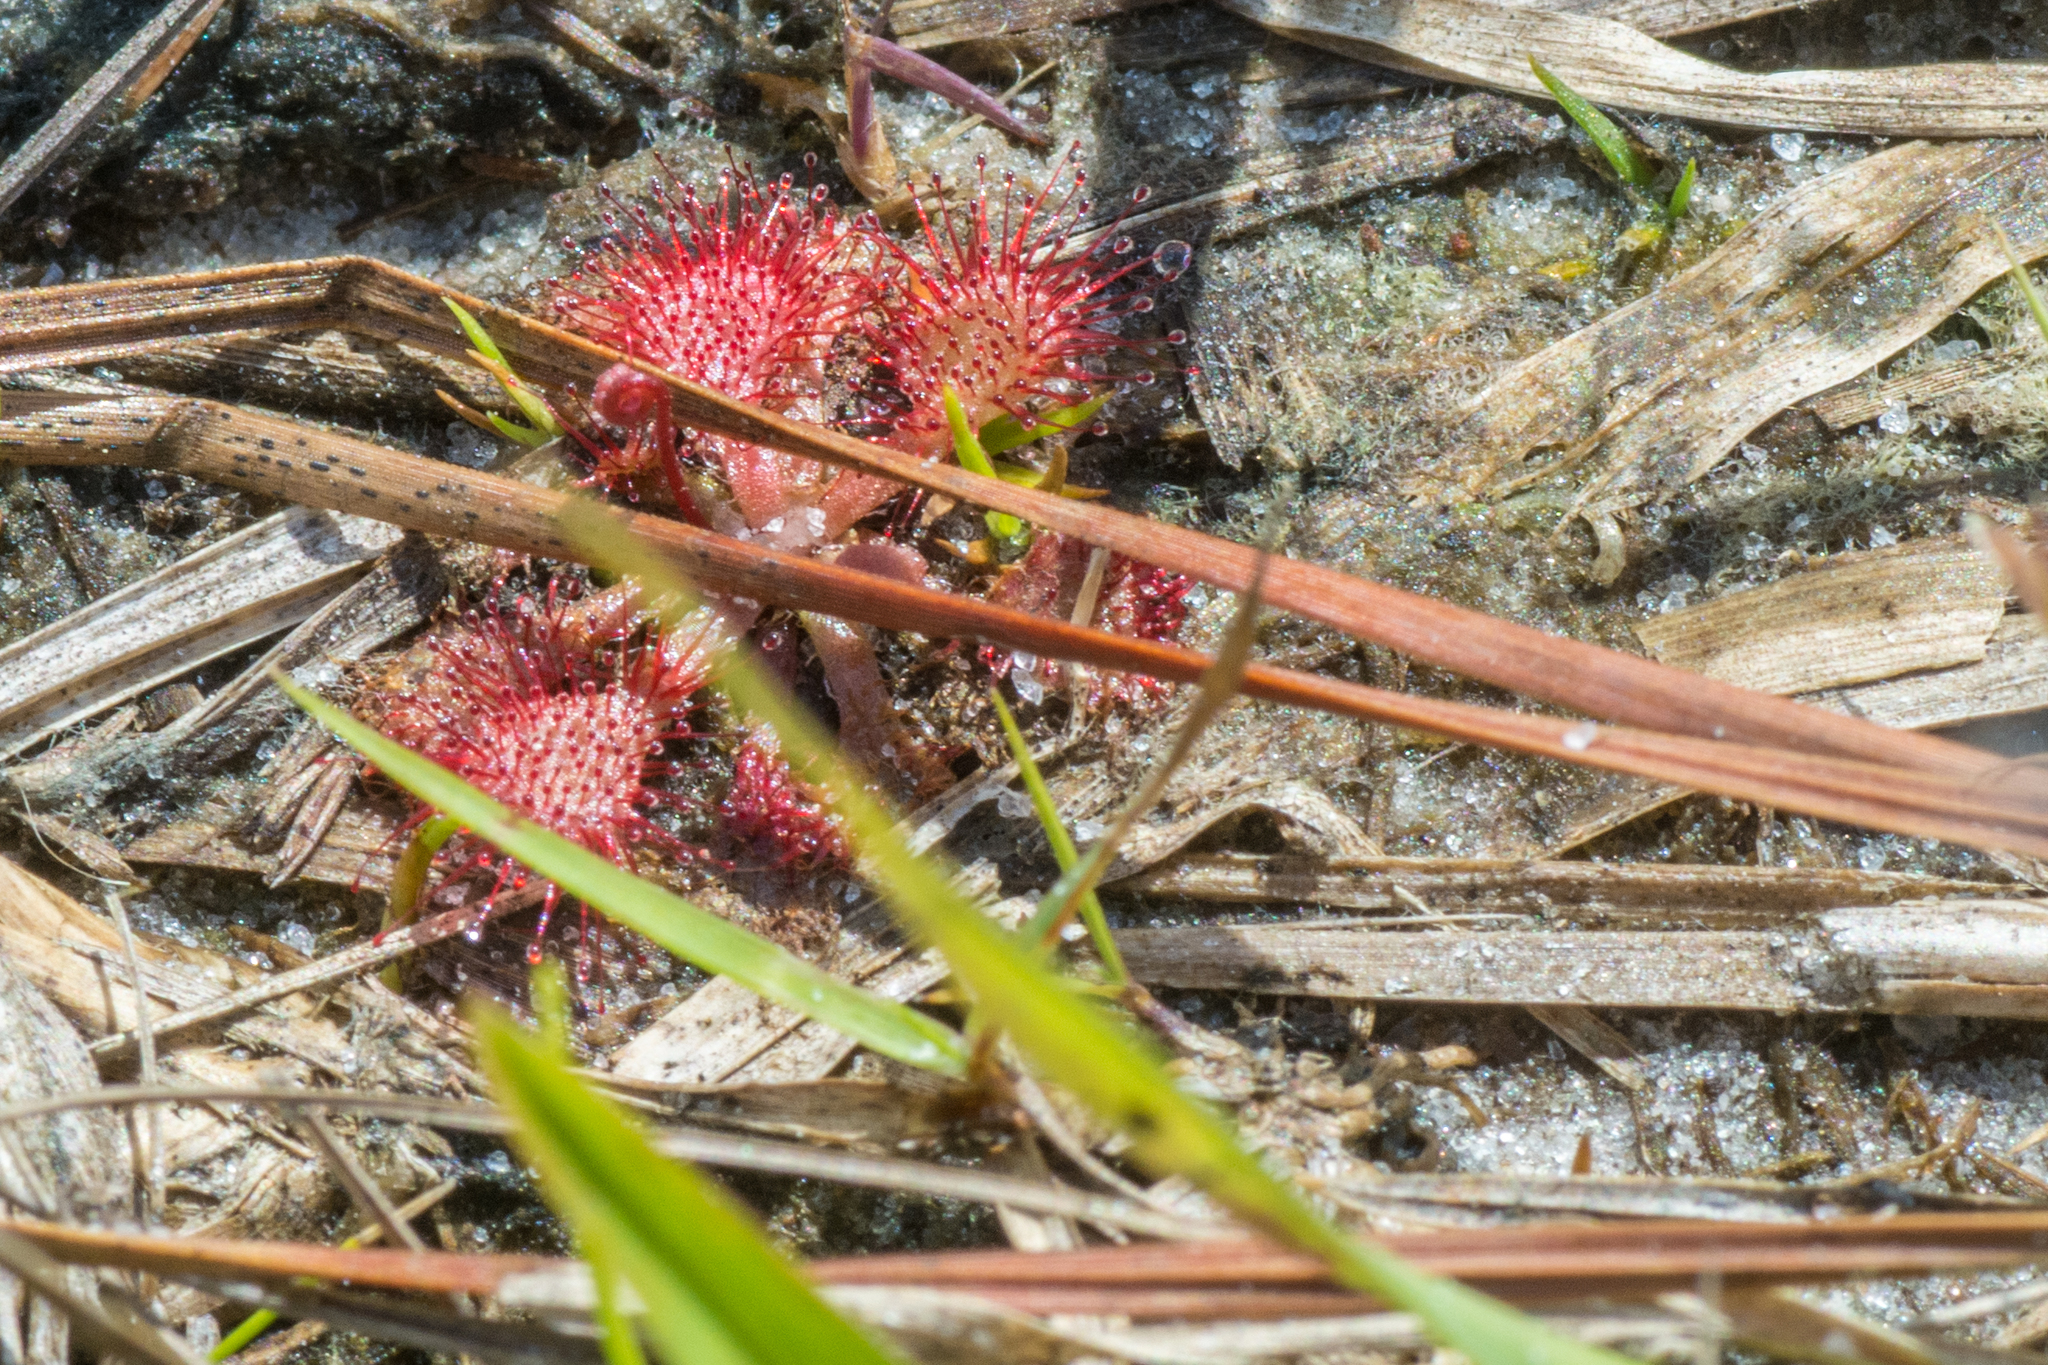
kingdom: Plantae
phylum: Tracheophyta
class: Magnoliopsida
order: Caryophyllales
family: Droseraceae
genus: Drosera
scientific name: Drosera capillaris
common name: Pink sundew
